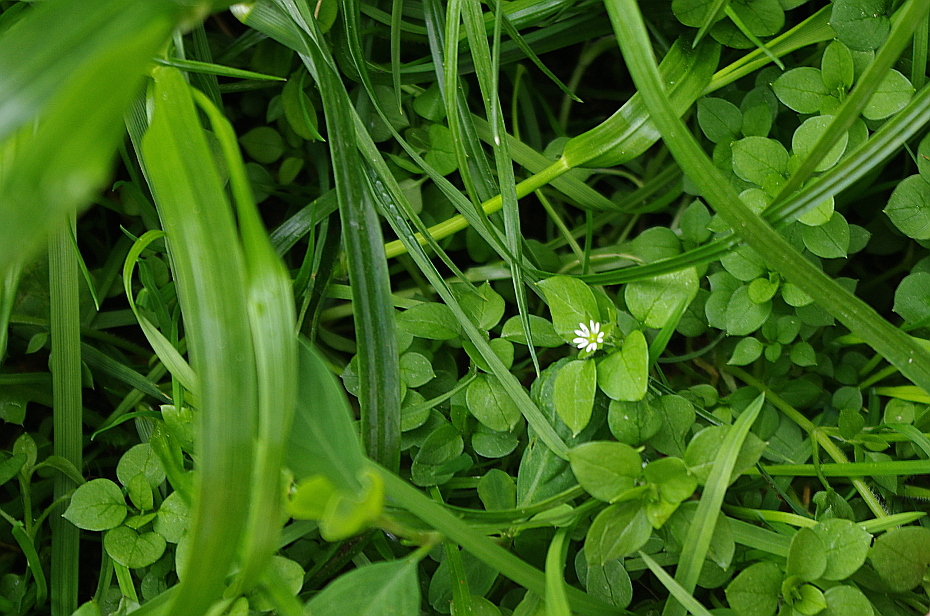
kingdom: Plantae
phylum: Tracheophyta
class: Magnoliopsida
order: Caryophyllales
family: Caryophyllaceae
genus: Stellaria
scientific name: Stellaria media
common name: Common chickweed
